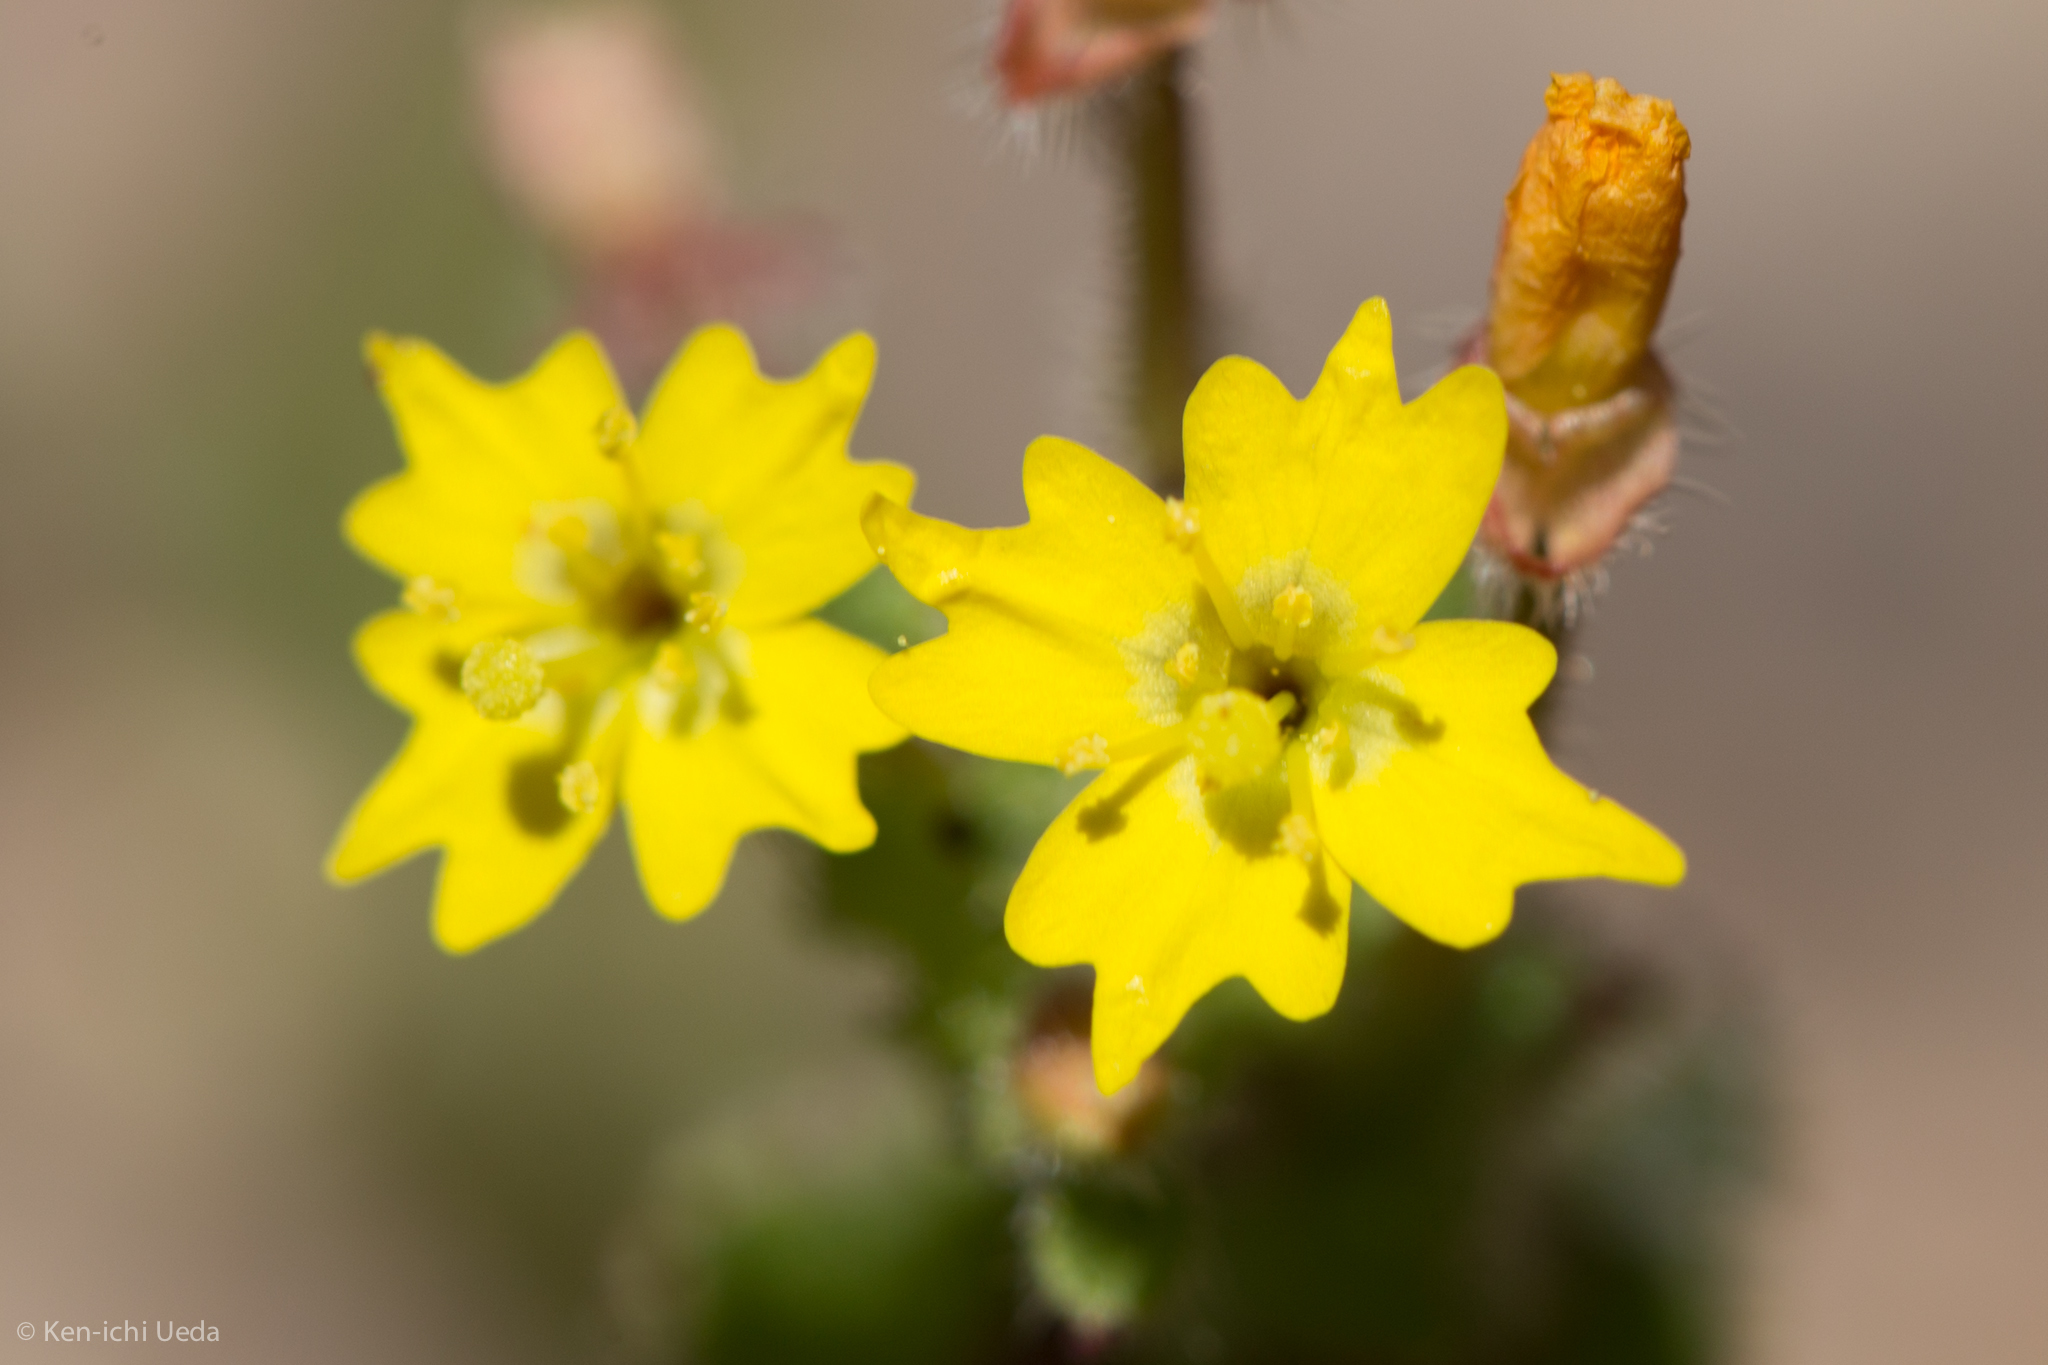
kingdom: Plantae
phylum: Tracheophyta
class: Magnoliopsida
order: Myrtales
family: Onagraceae
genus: Camissoniopsis
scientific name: Camissoniopsis hirtella
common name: Santa cruz island suncup
